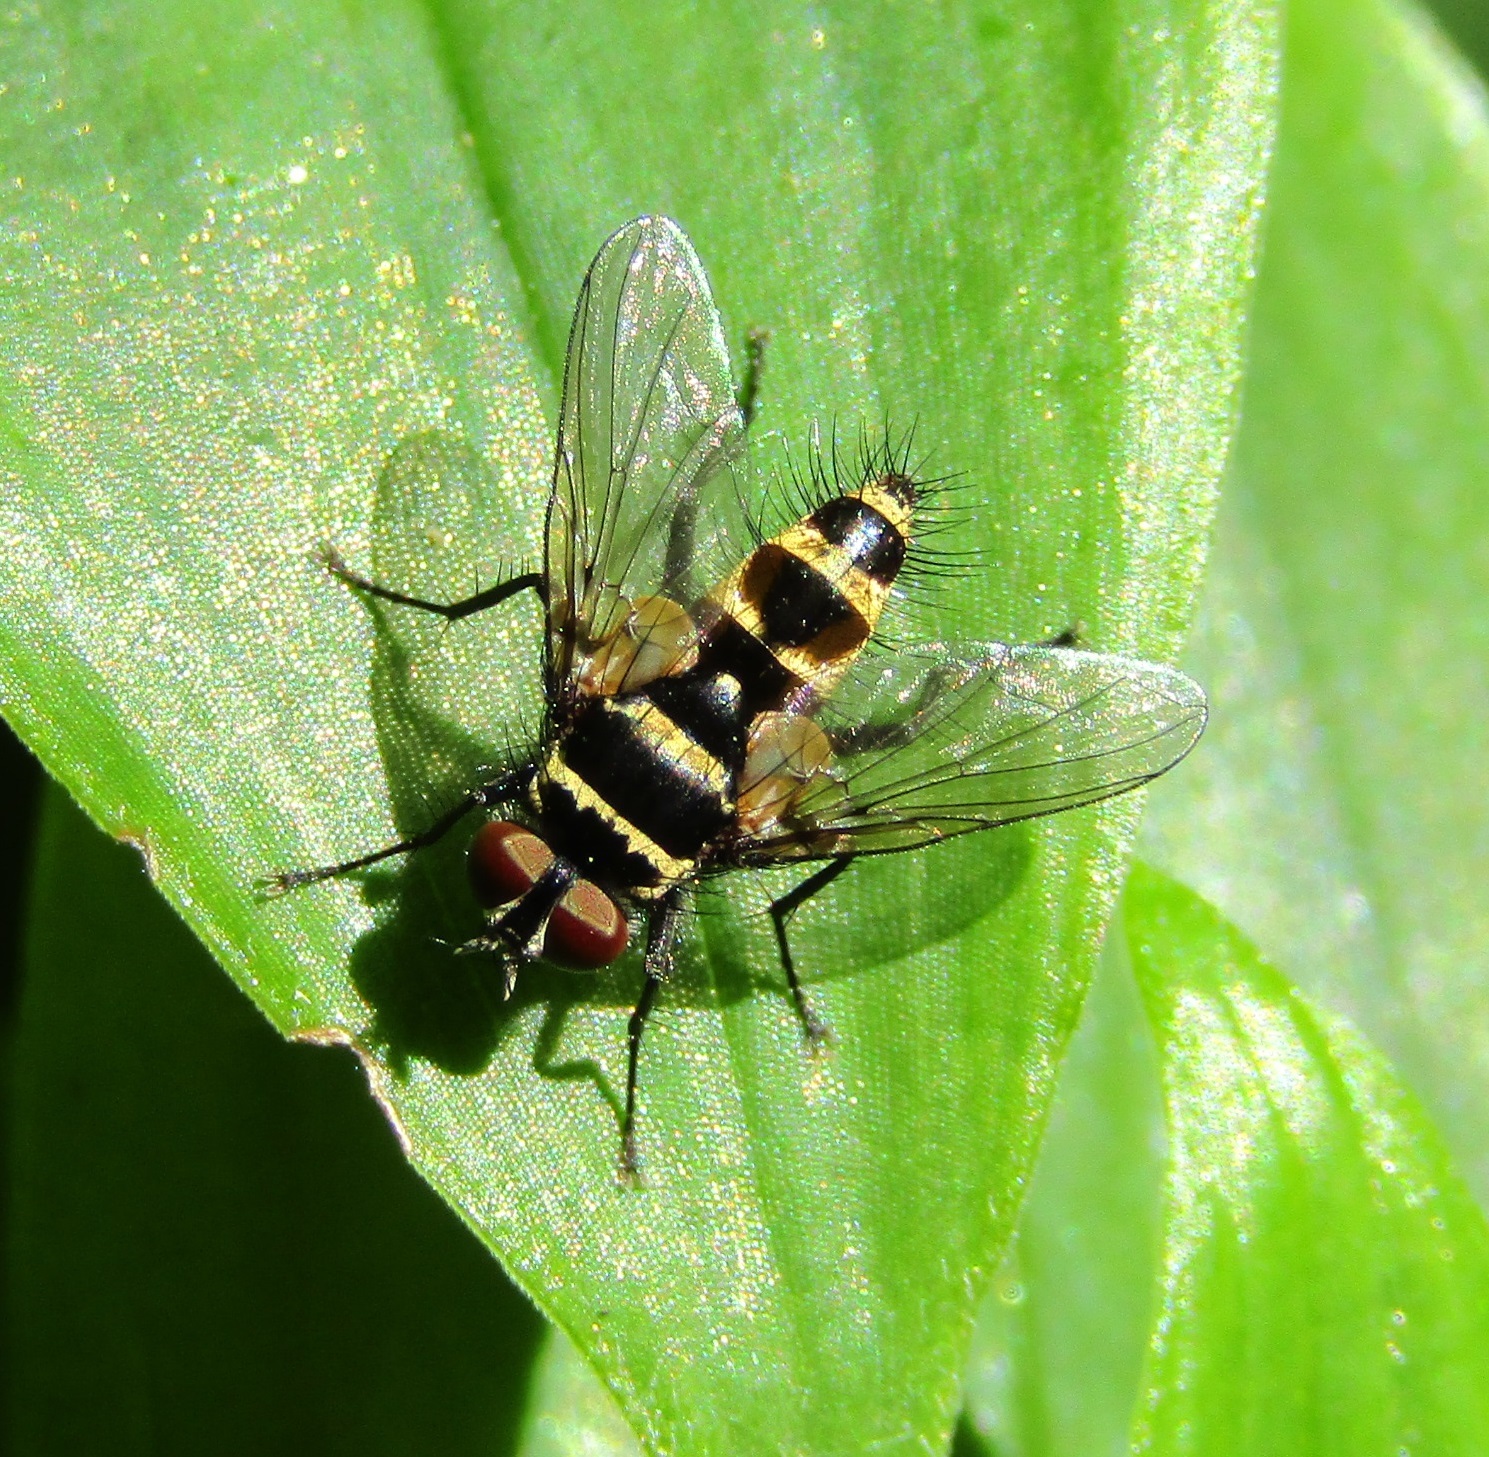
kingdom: Animalia
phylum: Arthropoda
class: Insecta
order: Diptera
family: Tachinidae
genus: Trigonospila
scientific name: Trigonospila brevifacies
